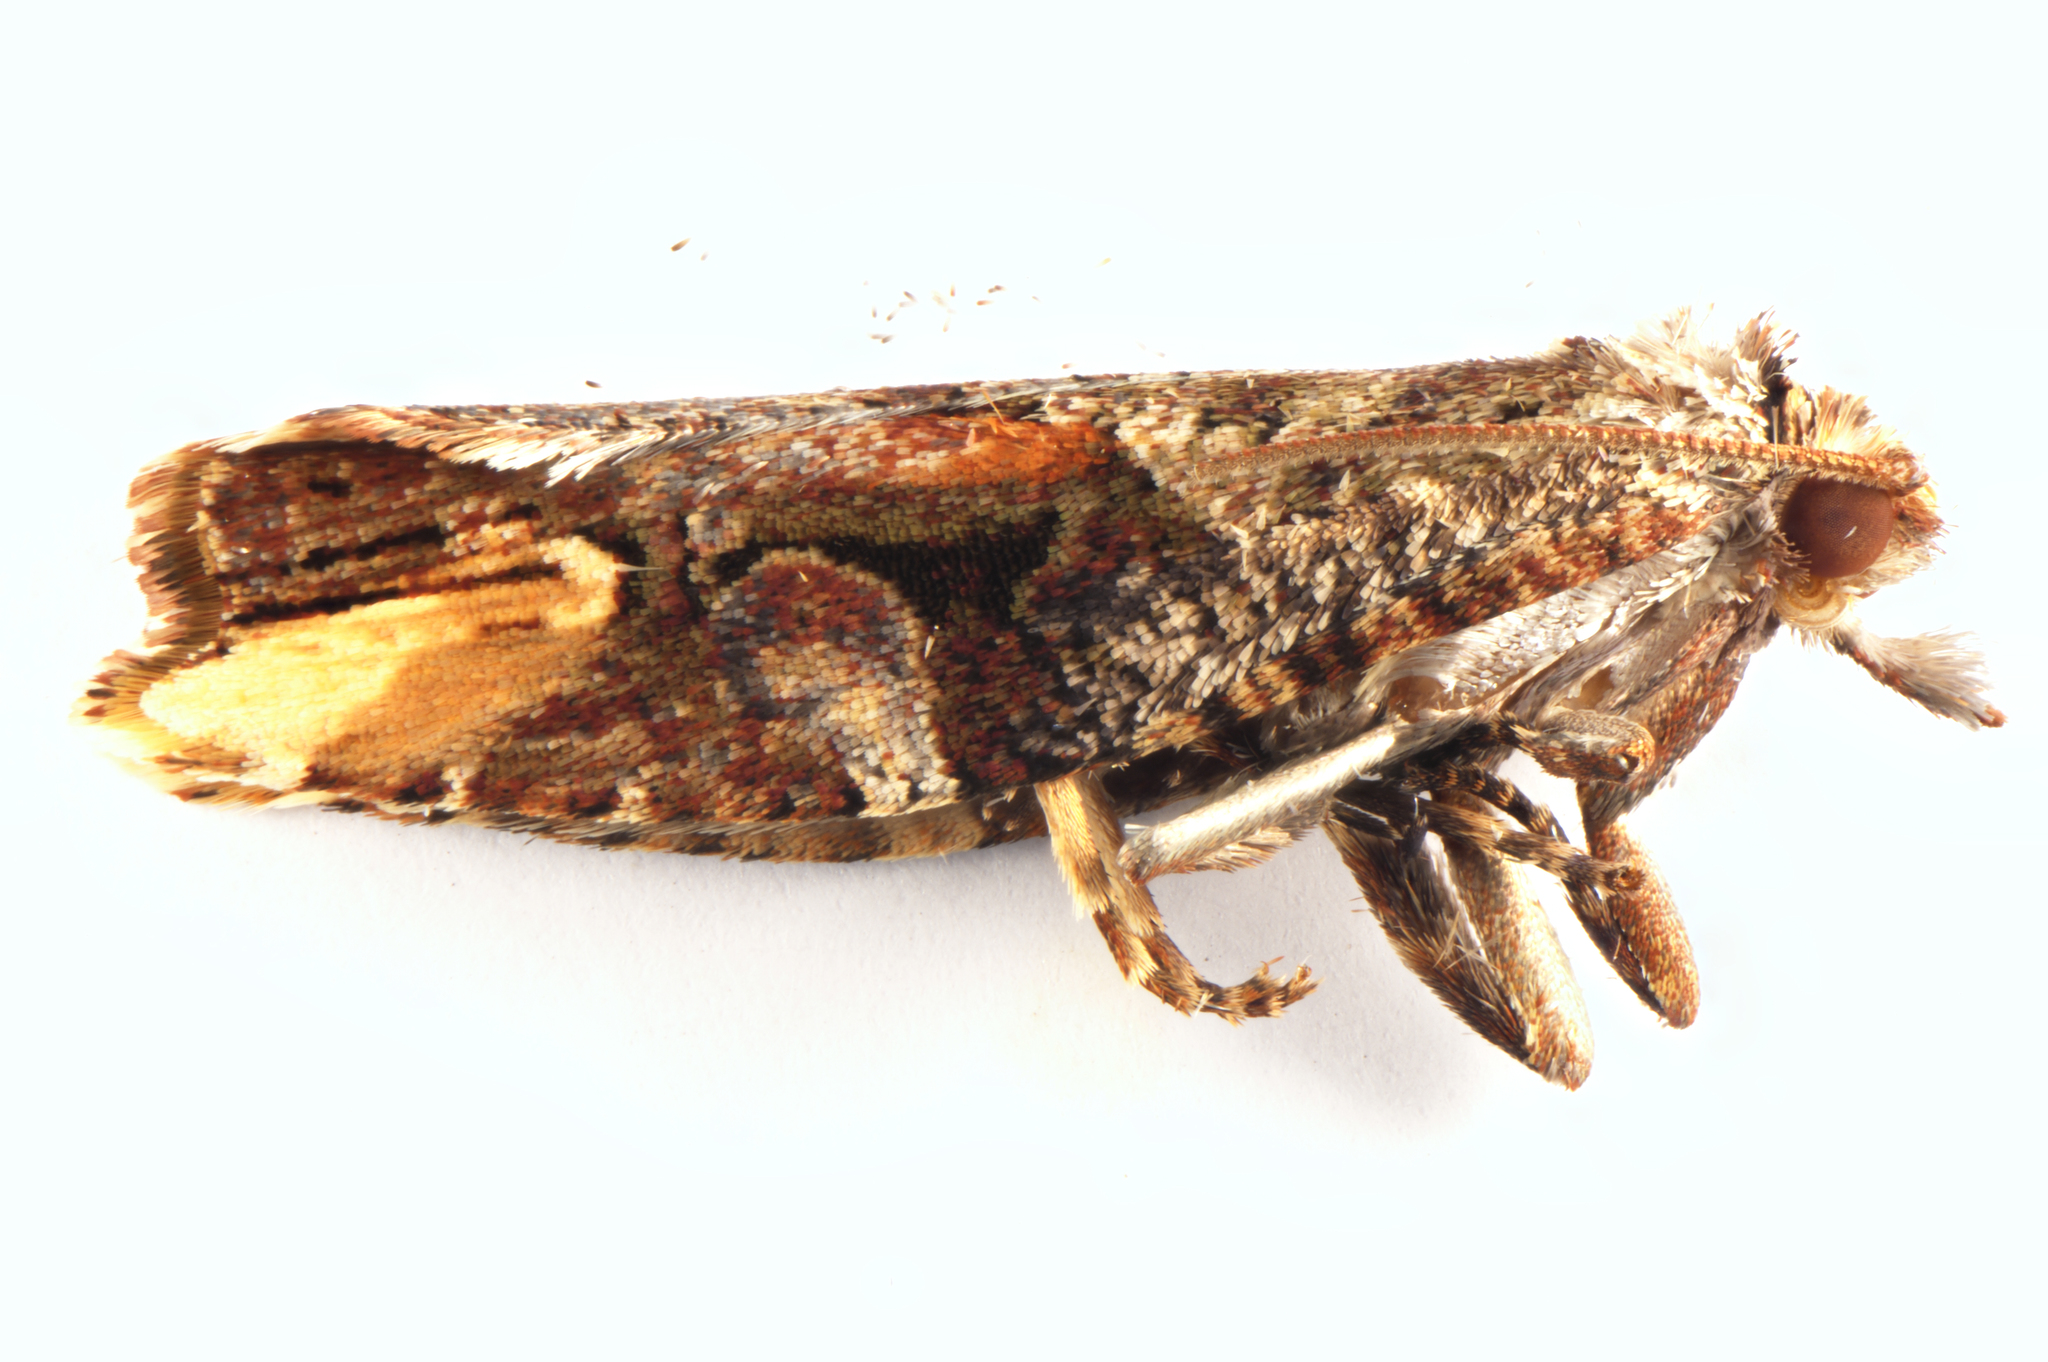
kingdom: Animalia
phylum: Arthropoda
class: Insecta
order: Lepidoptera
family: Tortricidae
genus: Epalxiphora
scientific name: Epalxiphora axenana
